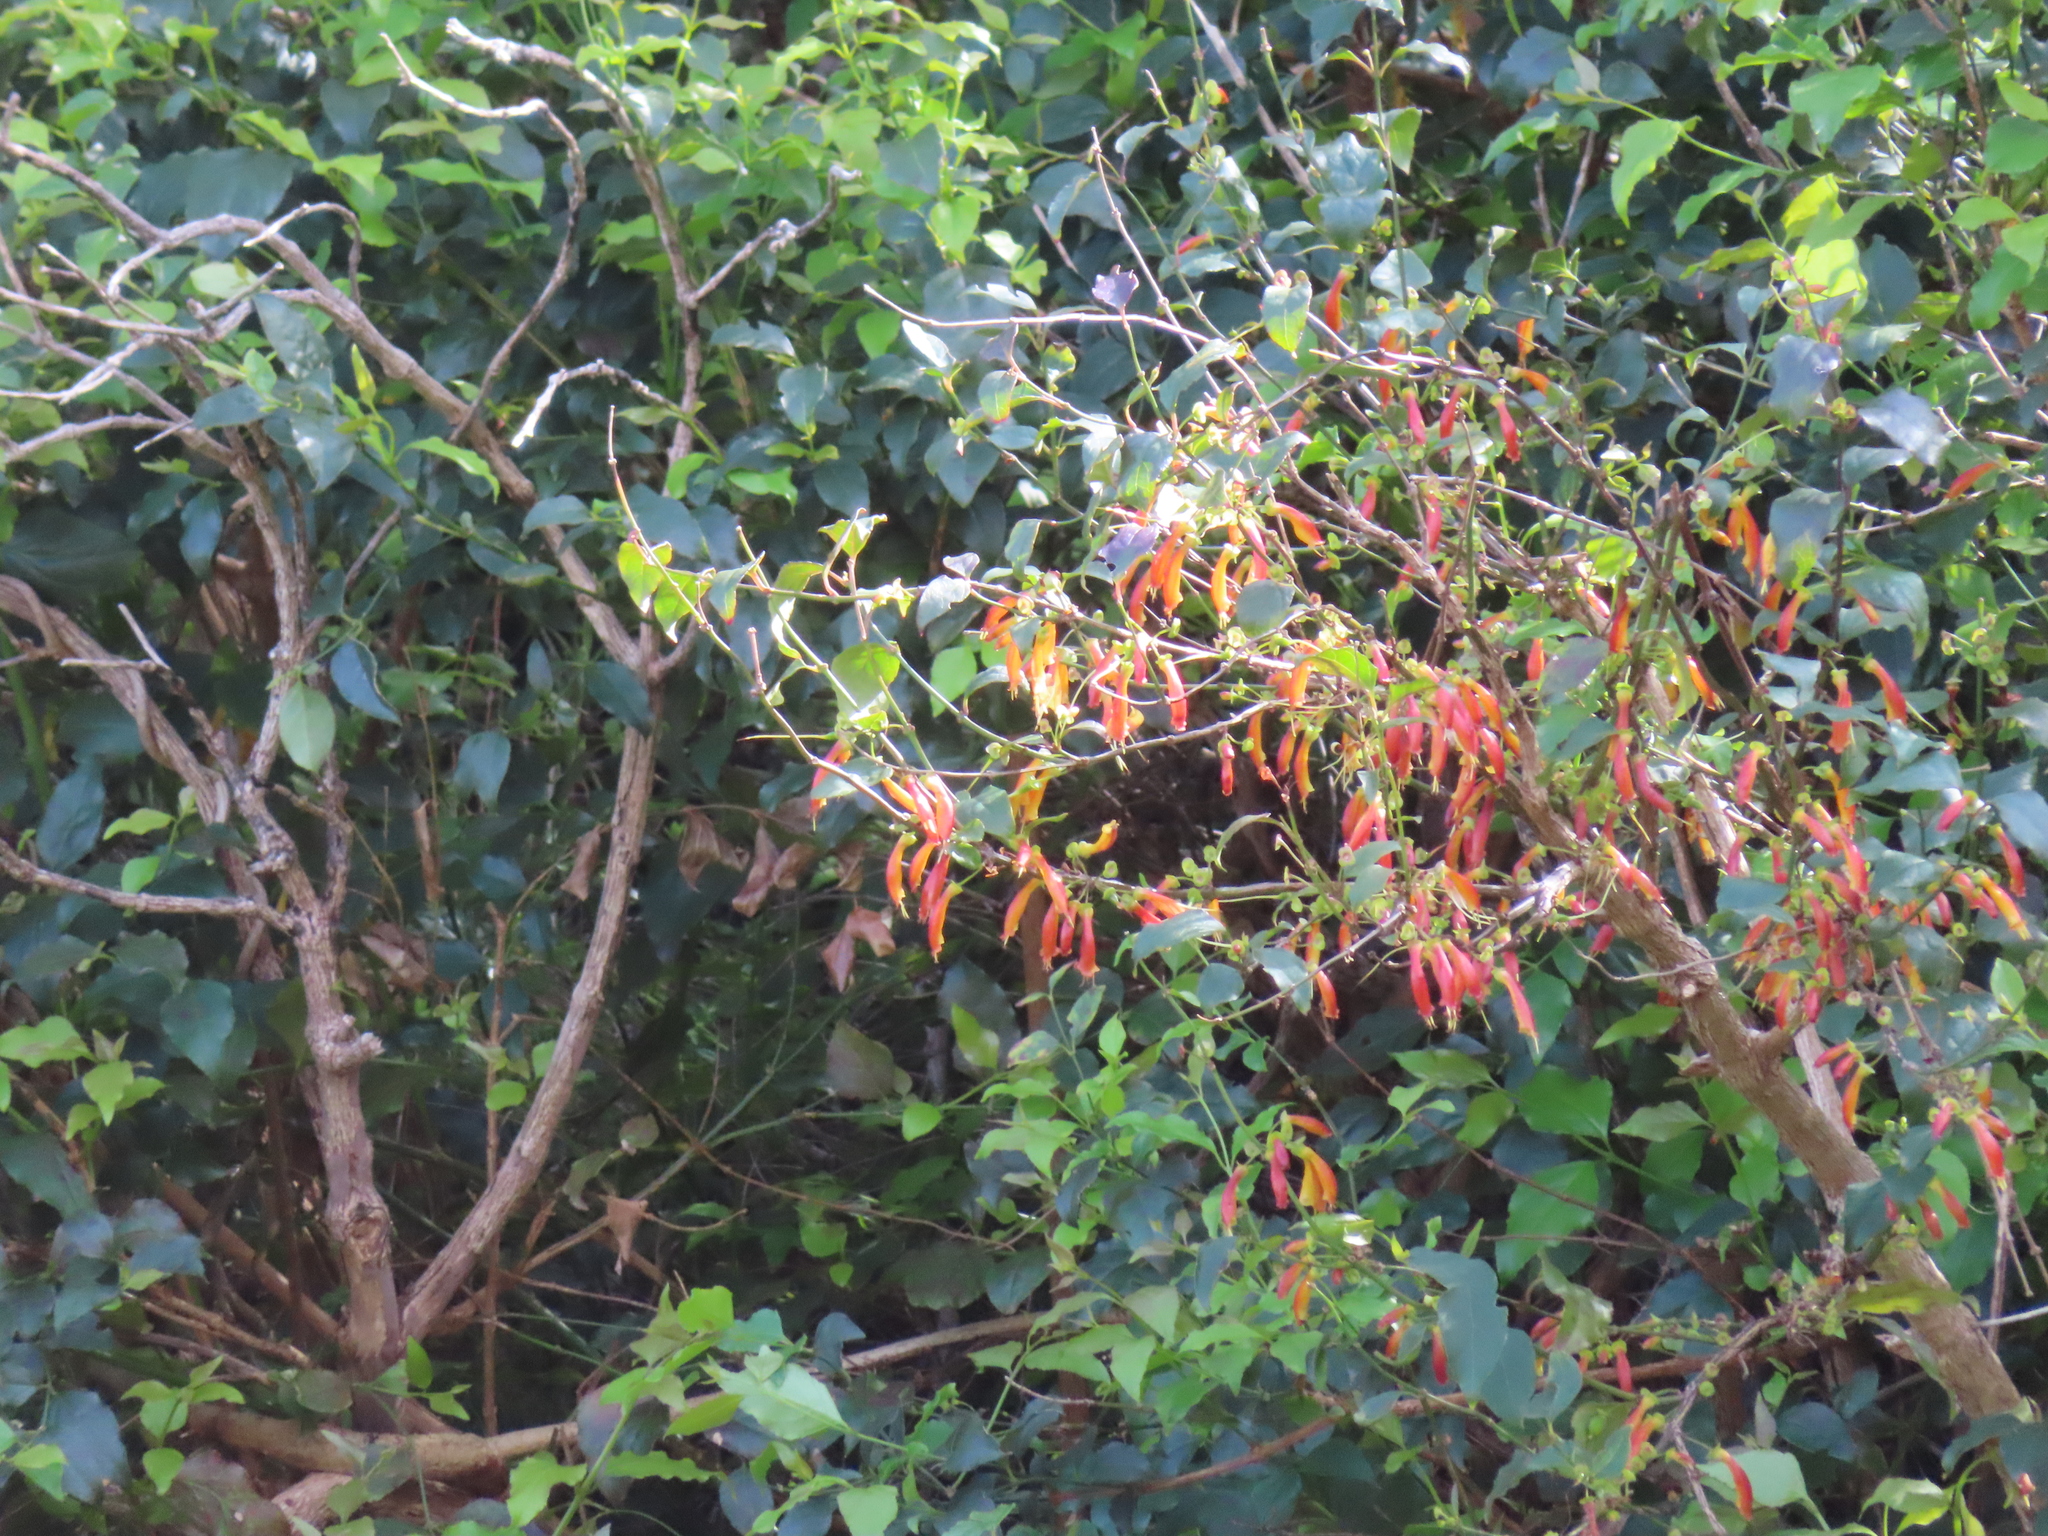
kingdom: Plantae
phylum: Tracheophyta
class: Magnoliopsida
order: Lamiales
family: Stilbaceae
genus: Halleria
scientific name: Halleria lucida
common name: Tree fuschia
